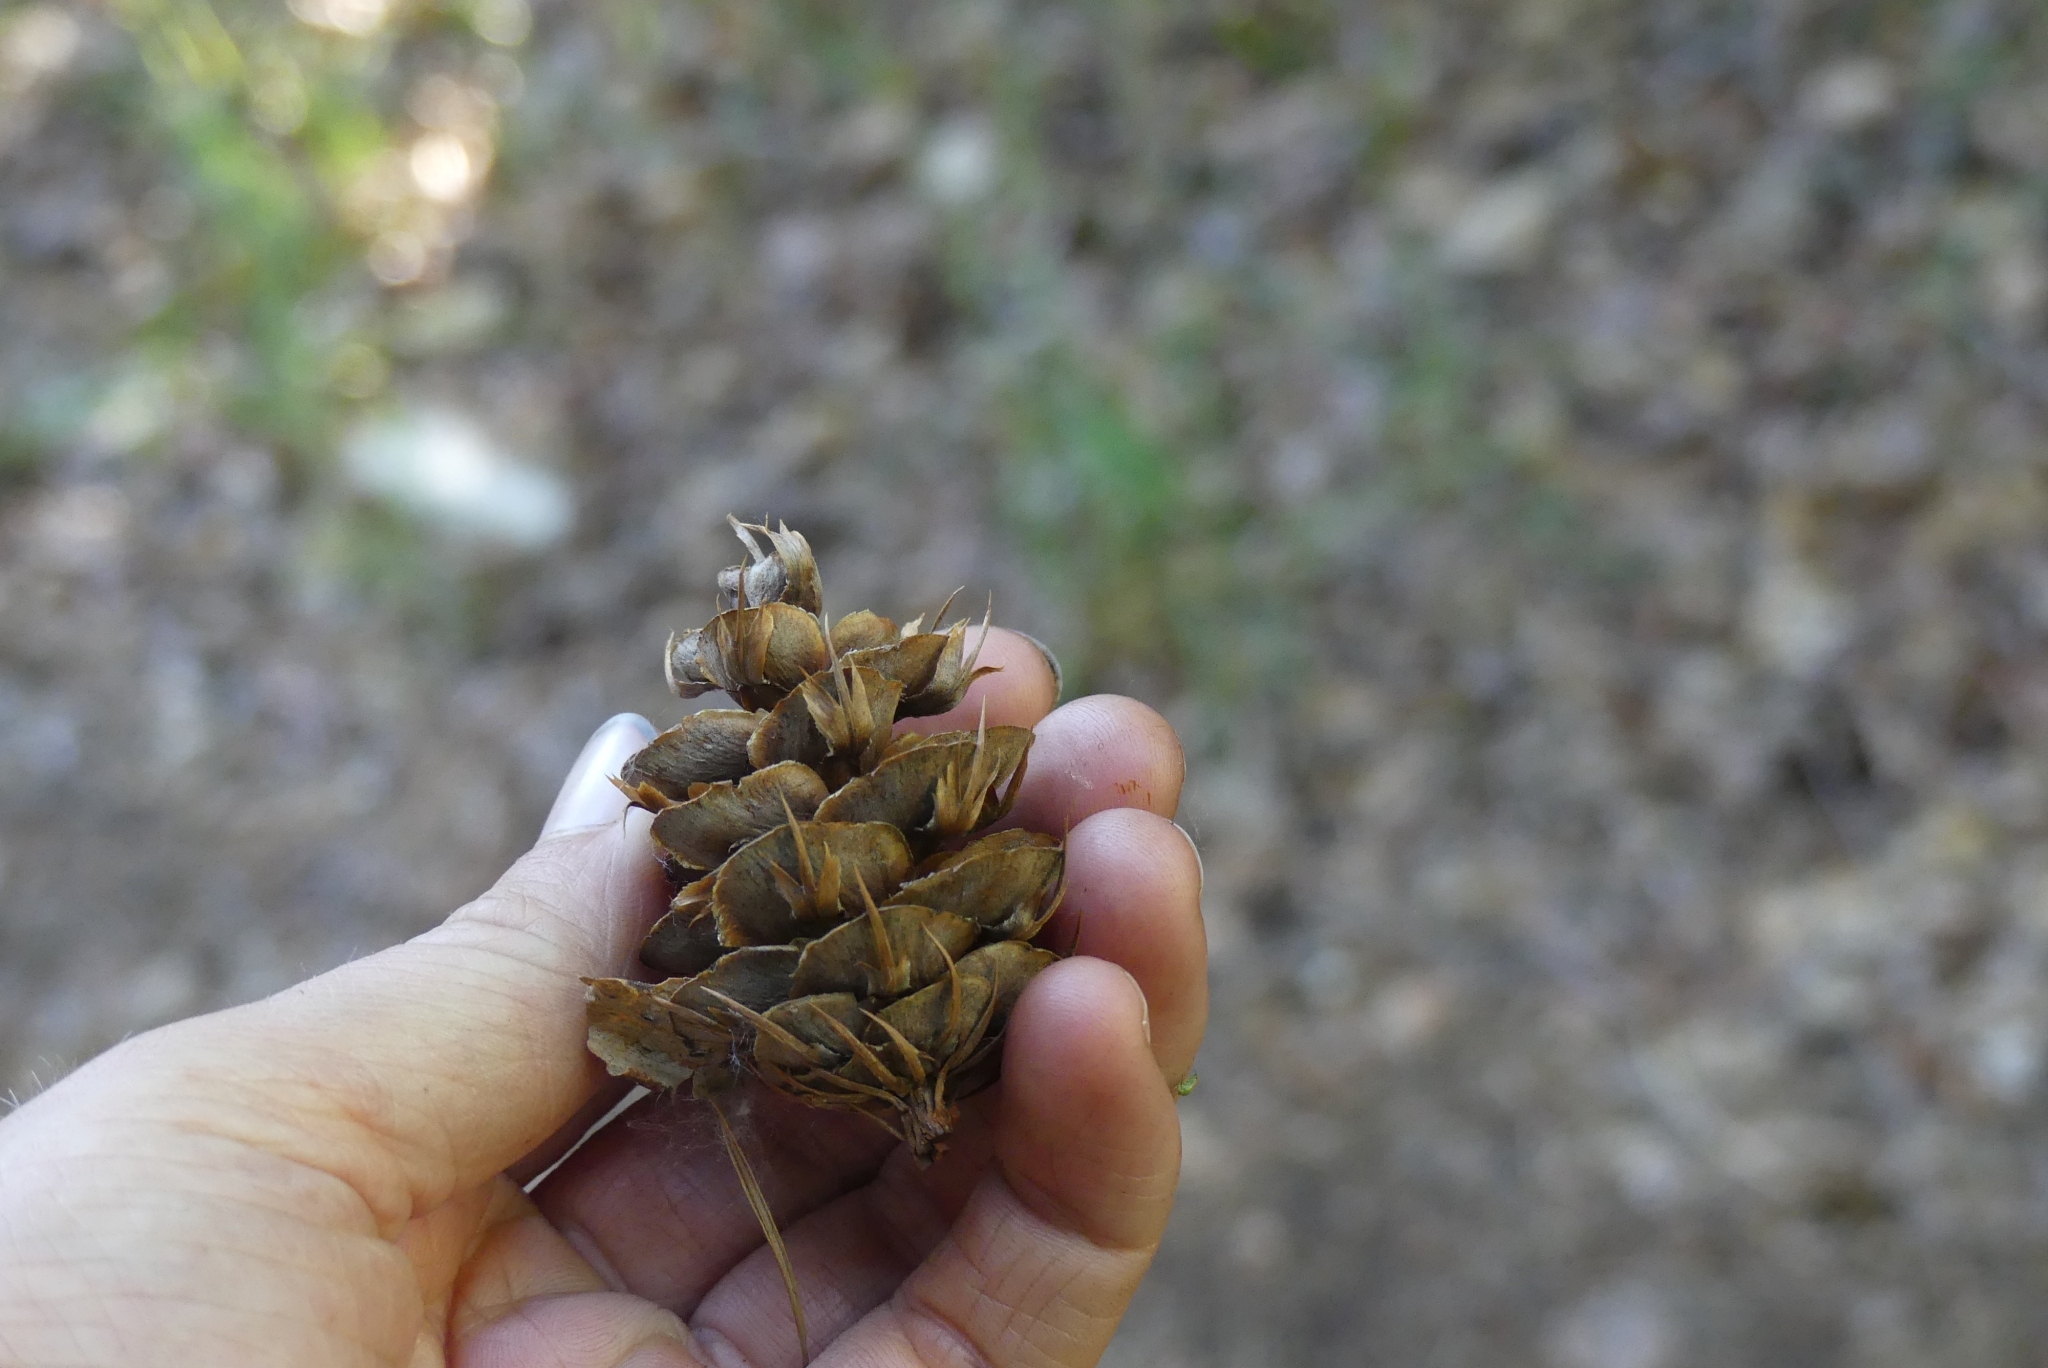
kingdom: Plantae
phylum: Tracheophyta
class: Pinopsida
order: Pinales
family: Pinaceae
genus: Pseudotsuga
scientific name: Pseudotsuga menziesii
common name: Douglas fir
